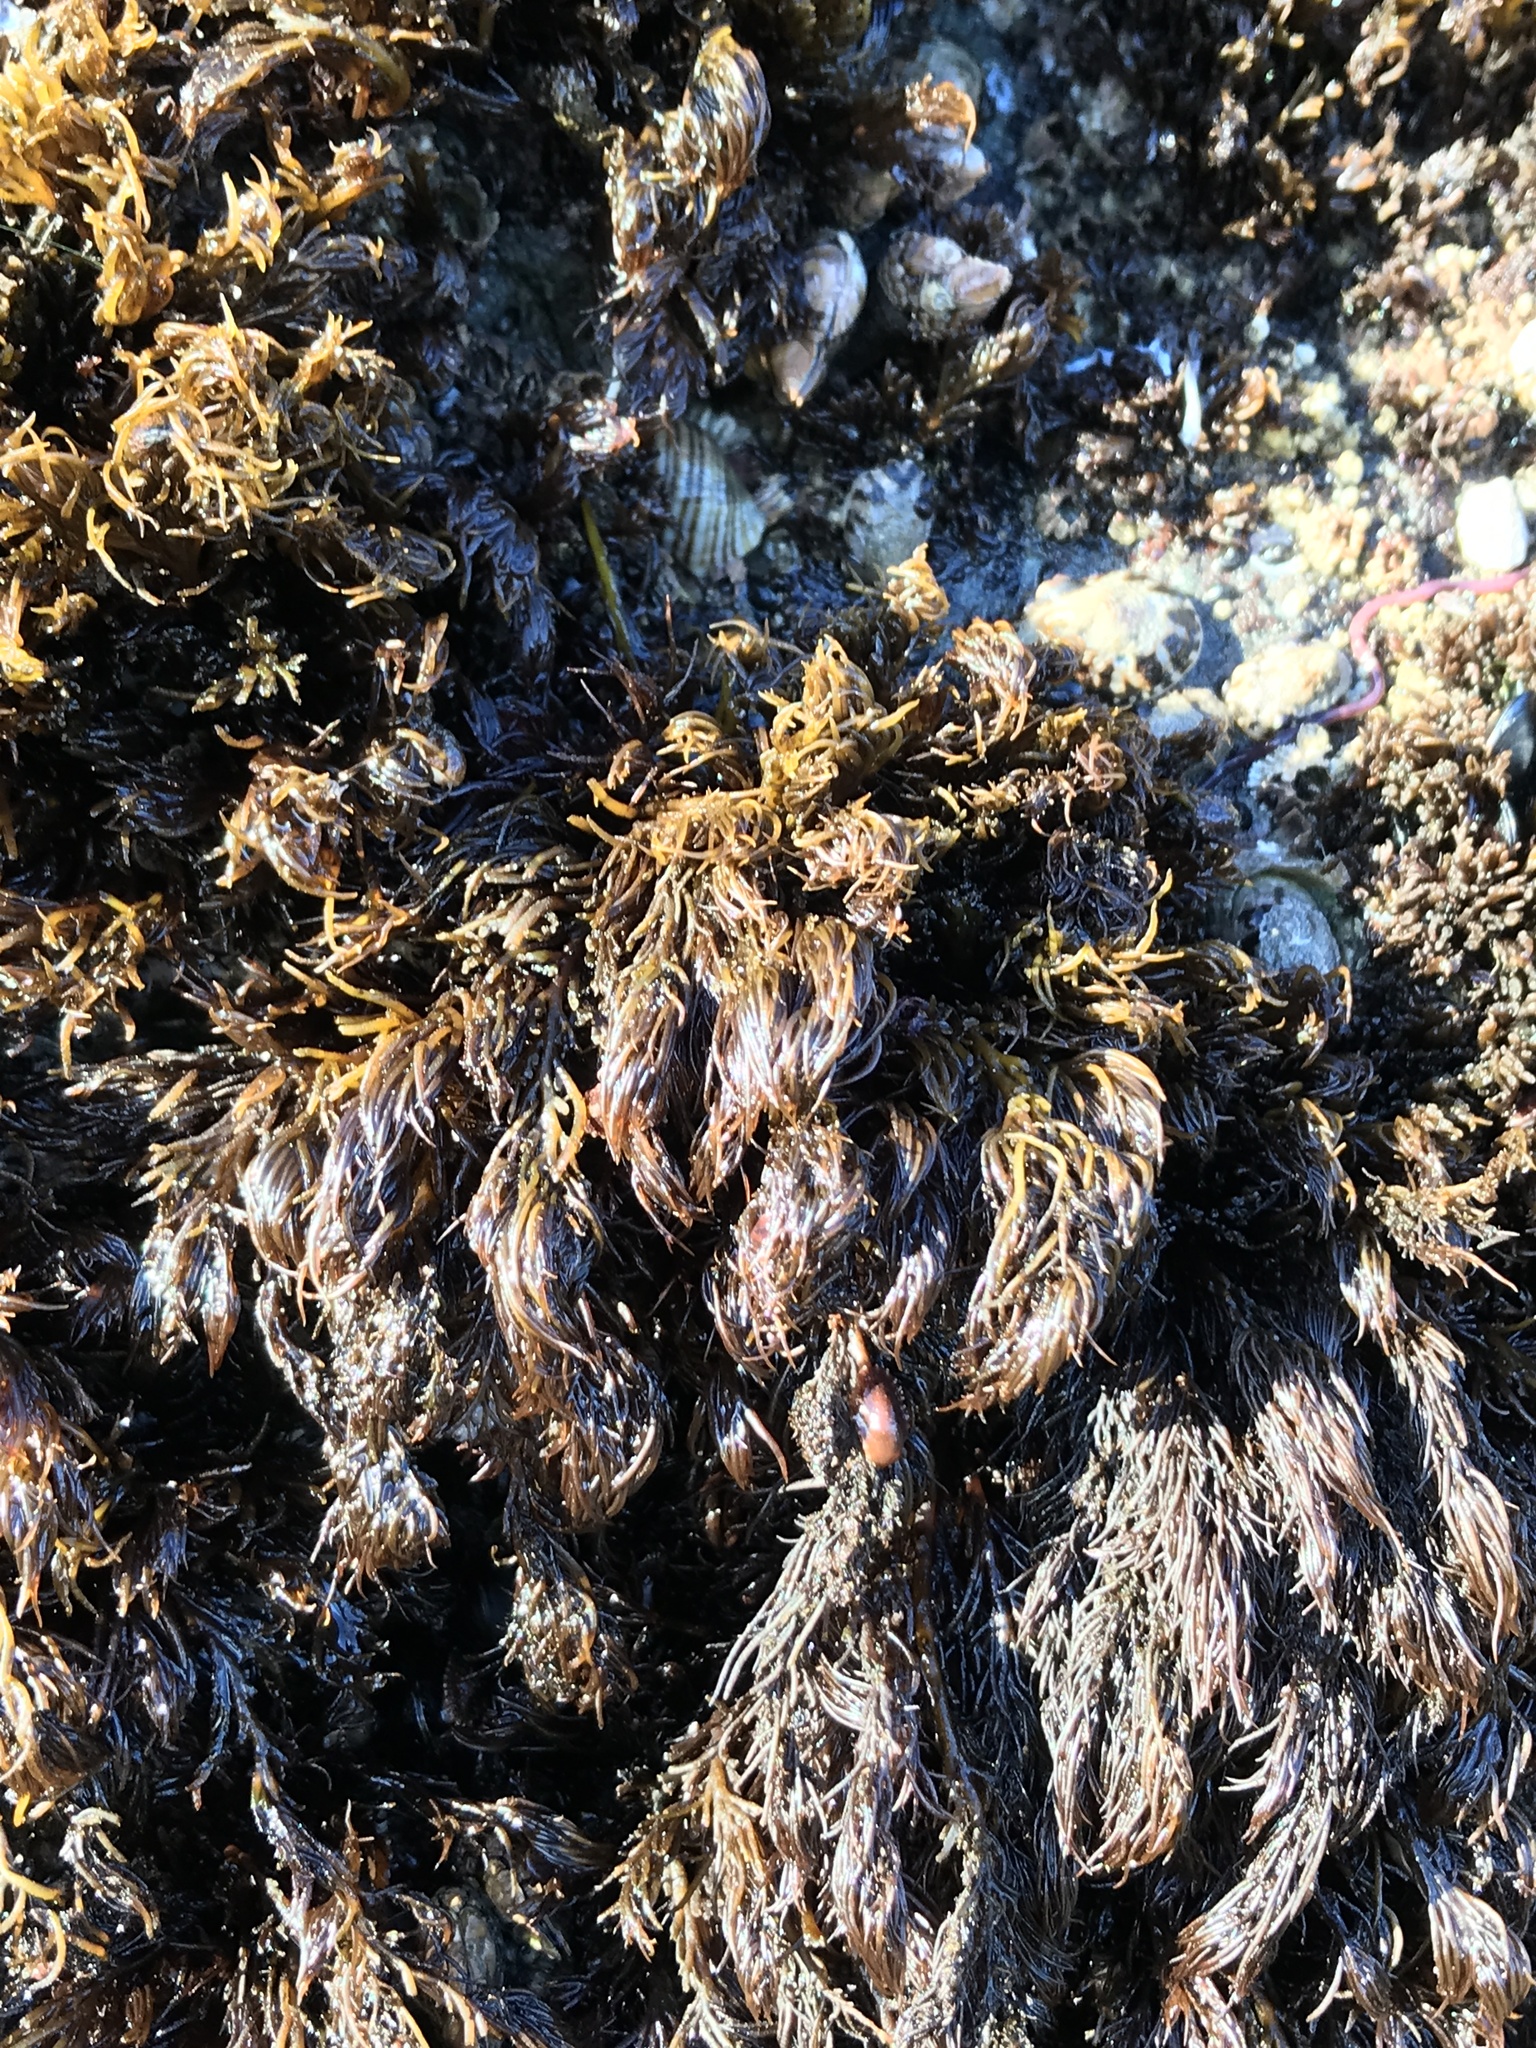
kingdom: Plantae
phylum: Rhodophyta
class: Florideophyceae
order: Ceramiales
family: Rhodomelaceae
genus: Odonthalia
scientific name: Odonthalia floccosa
